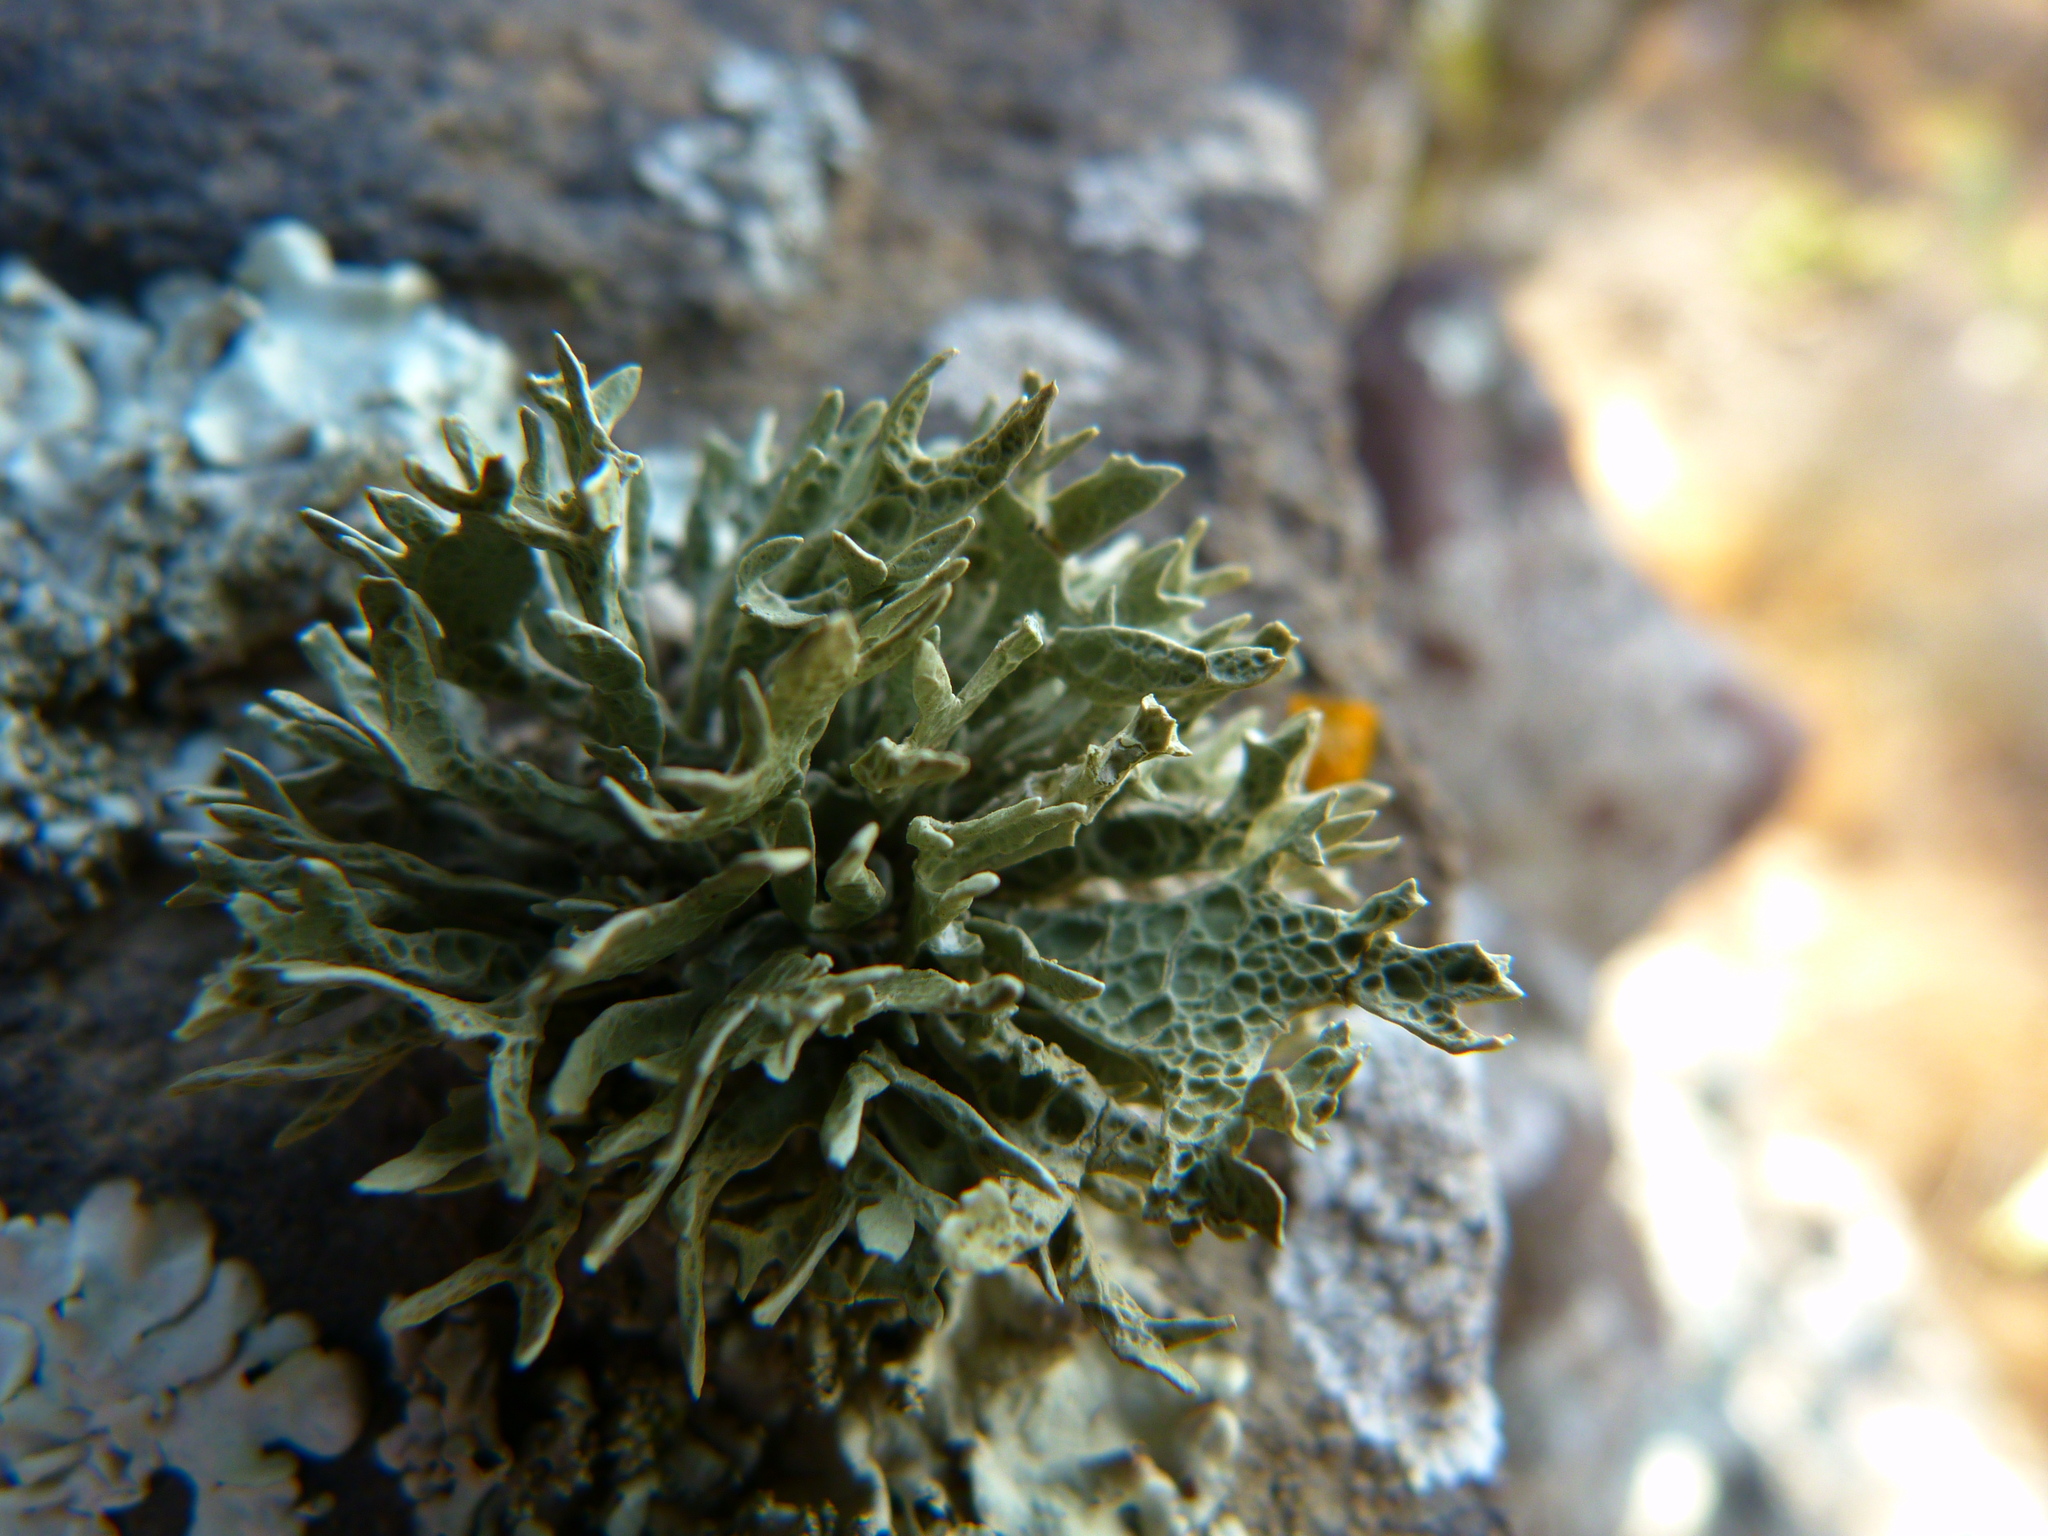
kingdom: Fungi
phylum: Ascomycota
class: Lecanoromycetes
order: Lecanorales
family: Ramalinaceae
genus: Niebla
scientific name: Niebla homalea
